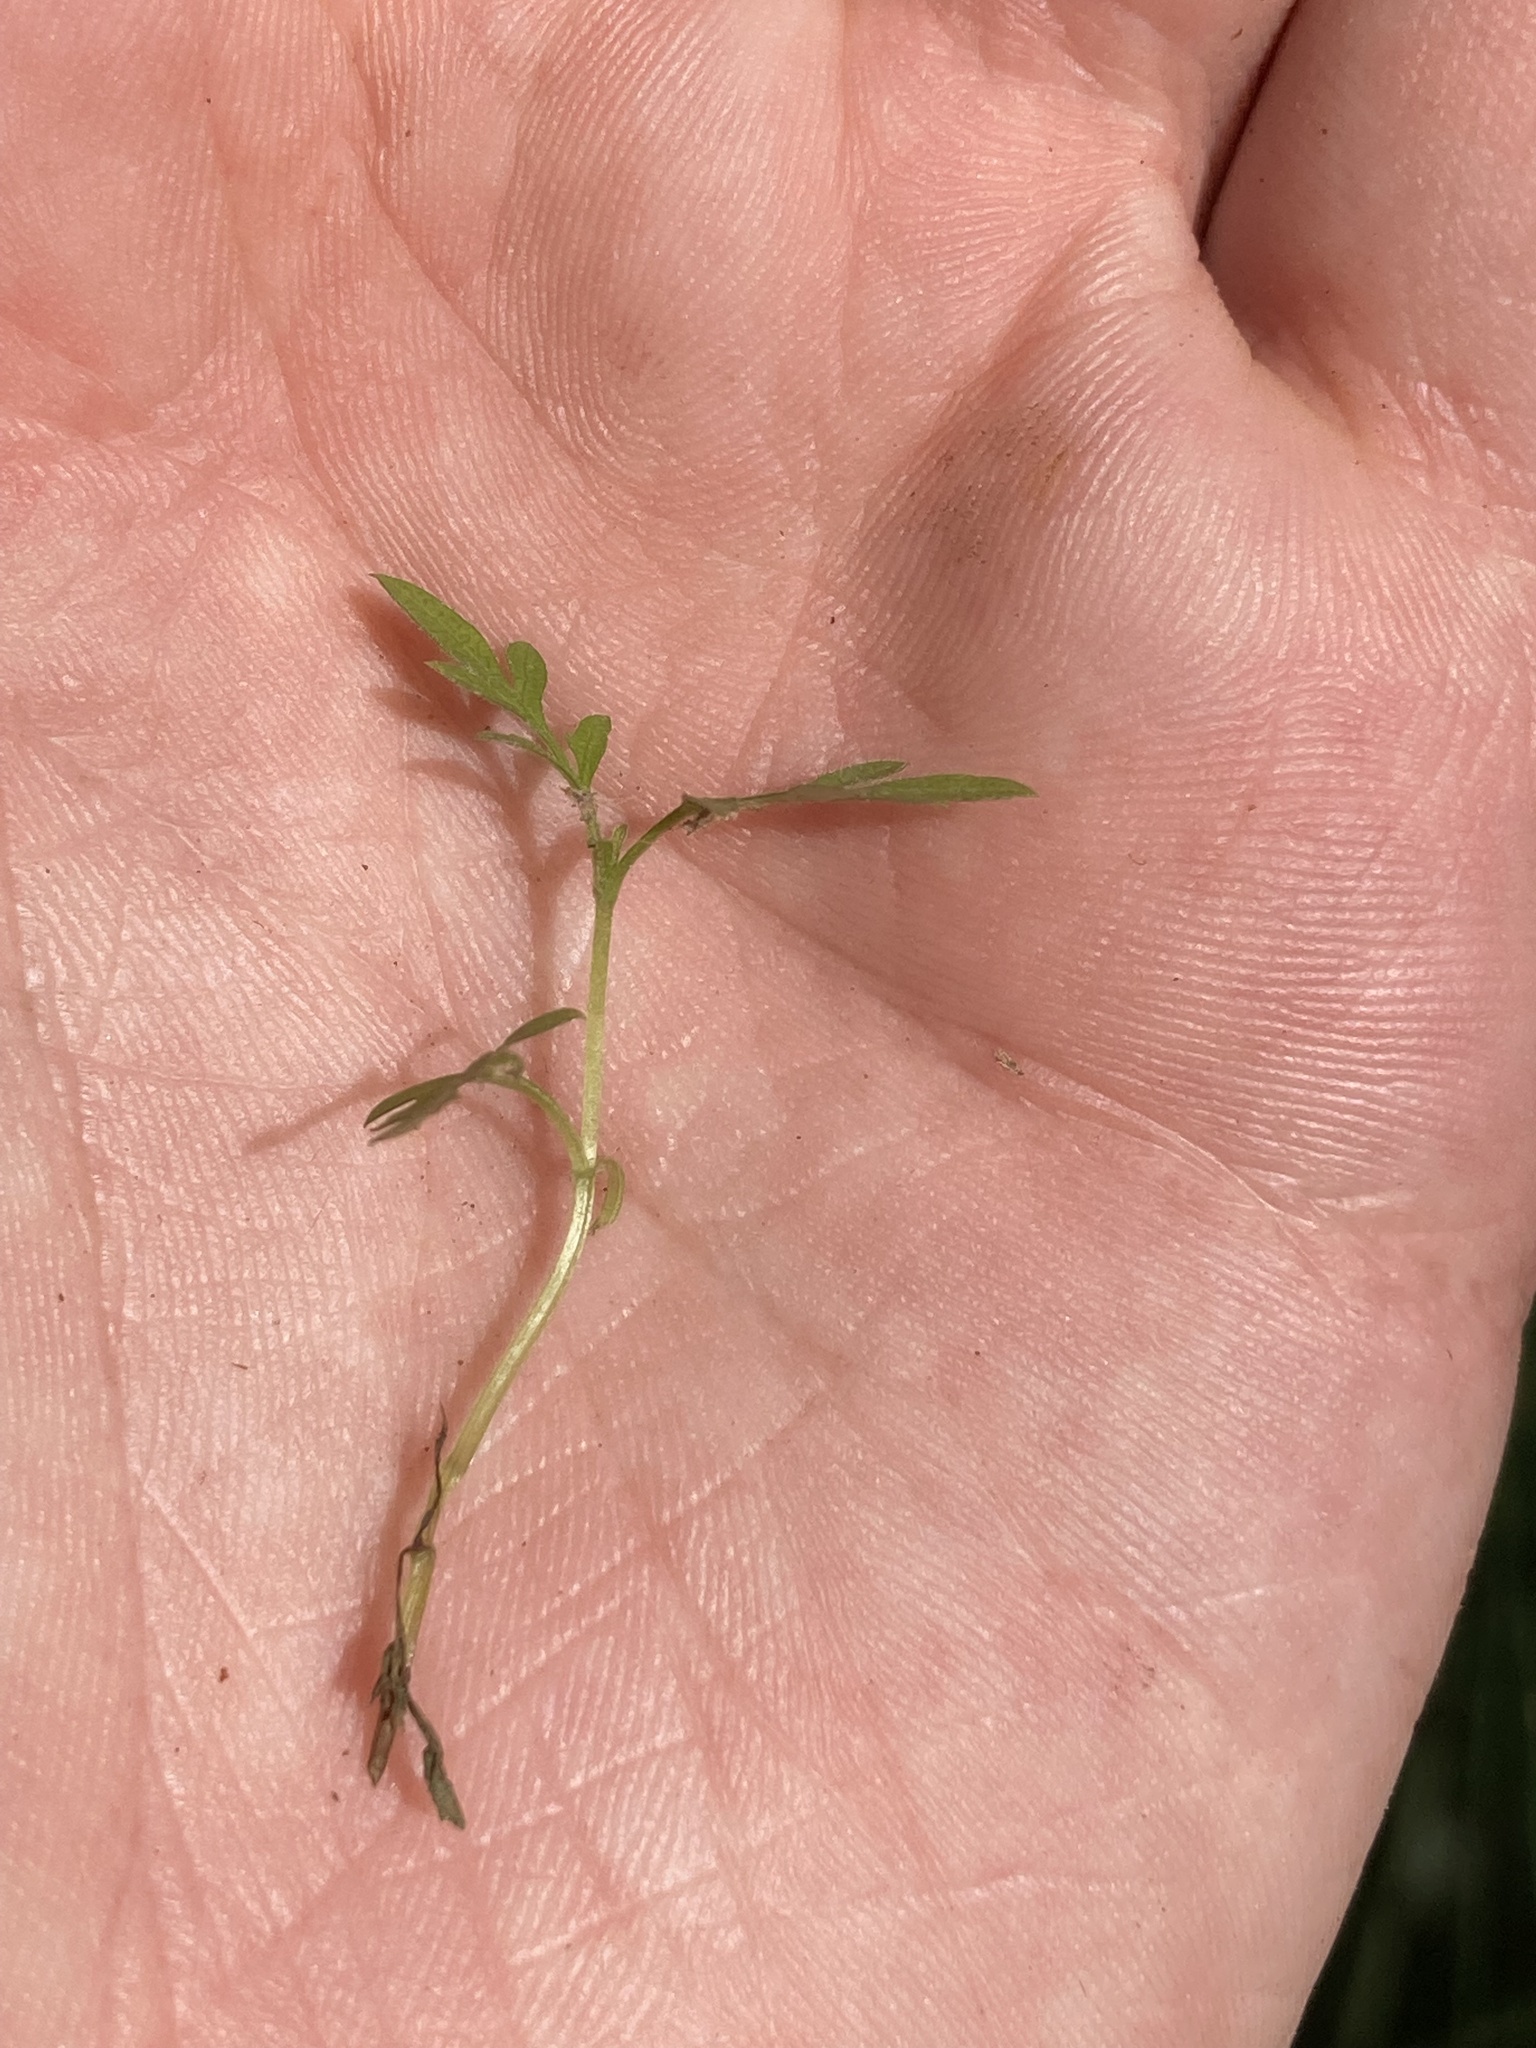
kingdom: Plantae
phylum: Tracheophyta
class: Magnoliopsida
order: Asterales
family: Asteraceae
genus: Bidens
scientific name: Bidens subalternans
